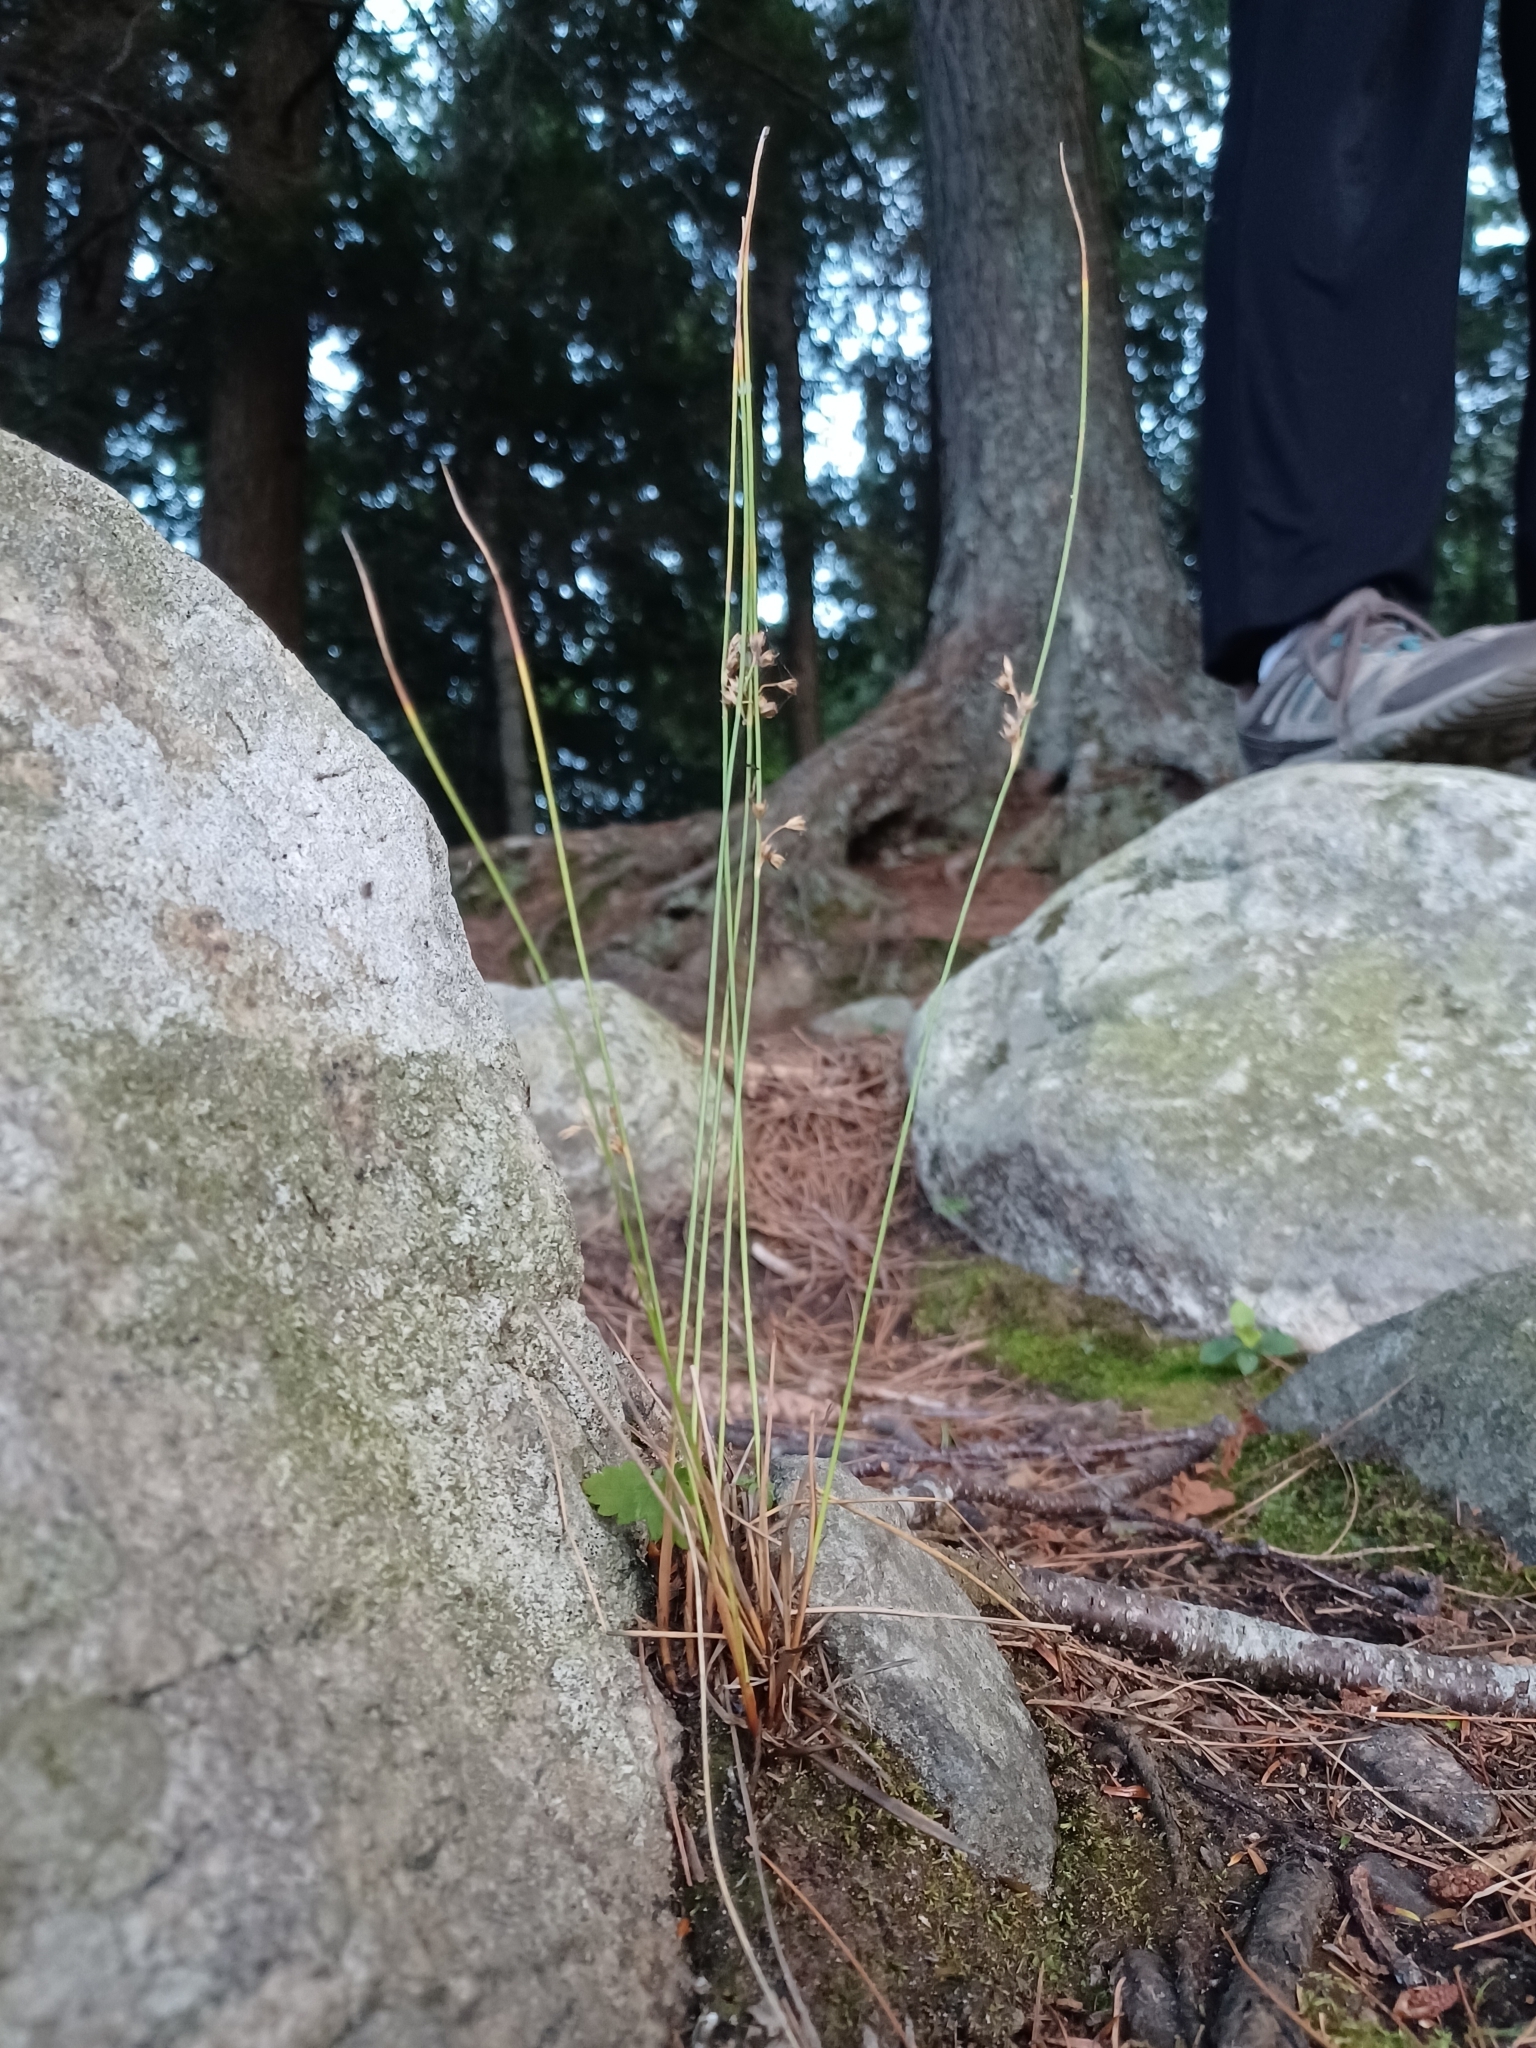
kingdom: Plantae
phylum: Tracheophyta
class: Liliopsida
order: Poales
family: Juncaceae
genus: Juncus
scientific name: Juncus filiformis
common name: Thread rush
